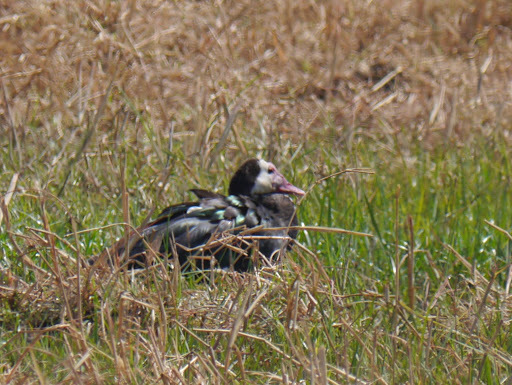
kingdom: Animalia
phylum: Chordata
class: Aves
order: Anseriformes
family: Anatidae
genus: Plectropterus
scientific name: Plectropterus gambensis
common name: Spur-winged goose
